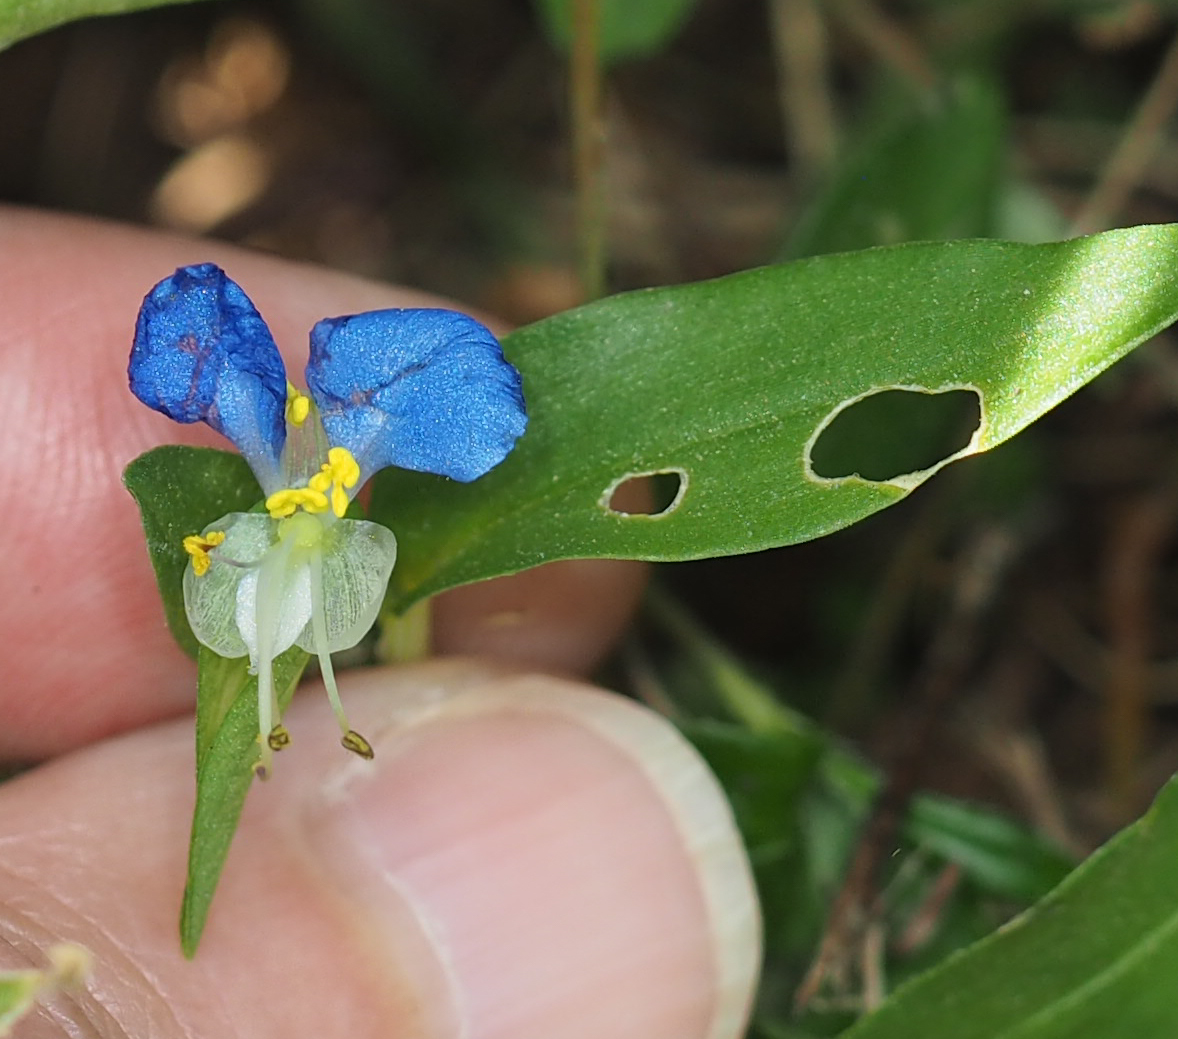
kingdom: Plantae
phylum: Tracheophyta
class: Liliopsida
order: Commelinales
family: Commelinaceae
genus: Commelina
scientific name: Commelina communis
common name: Asiatic dayflower
